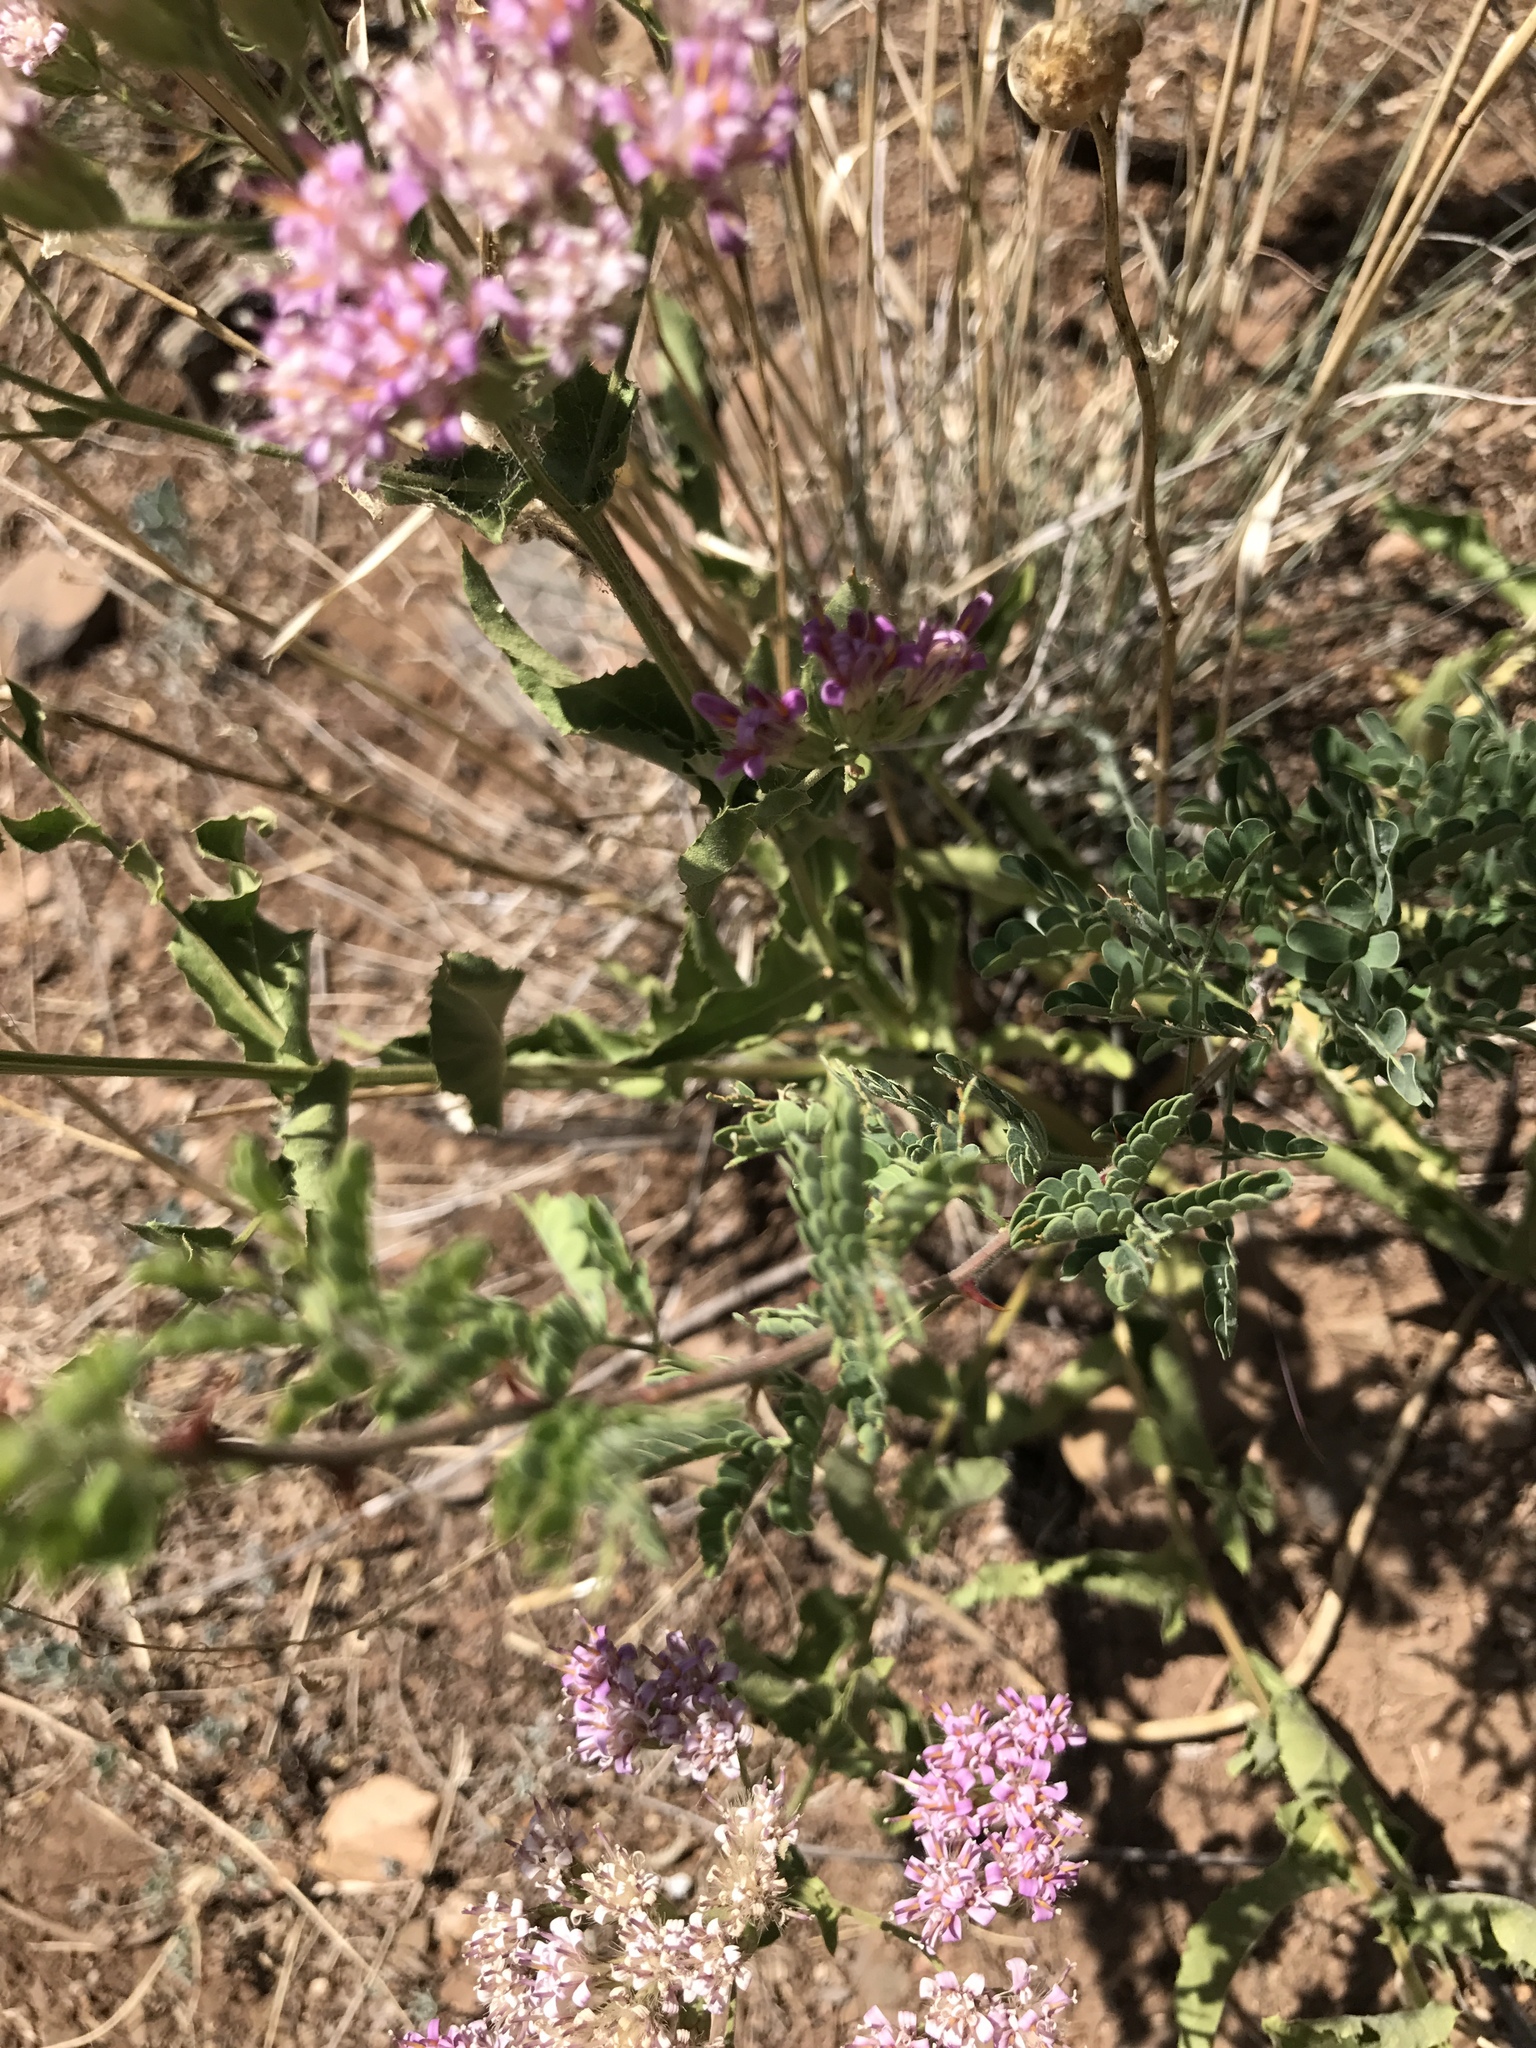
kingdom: Plantae
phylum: Tracheophyta
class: Magnoliopsida
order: Asterales
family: Asteraceae
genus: Acourtia
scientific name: Acourtia wrightii
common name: Brownfoot
